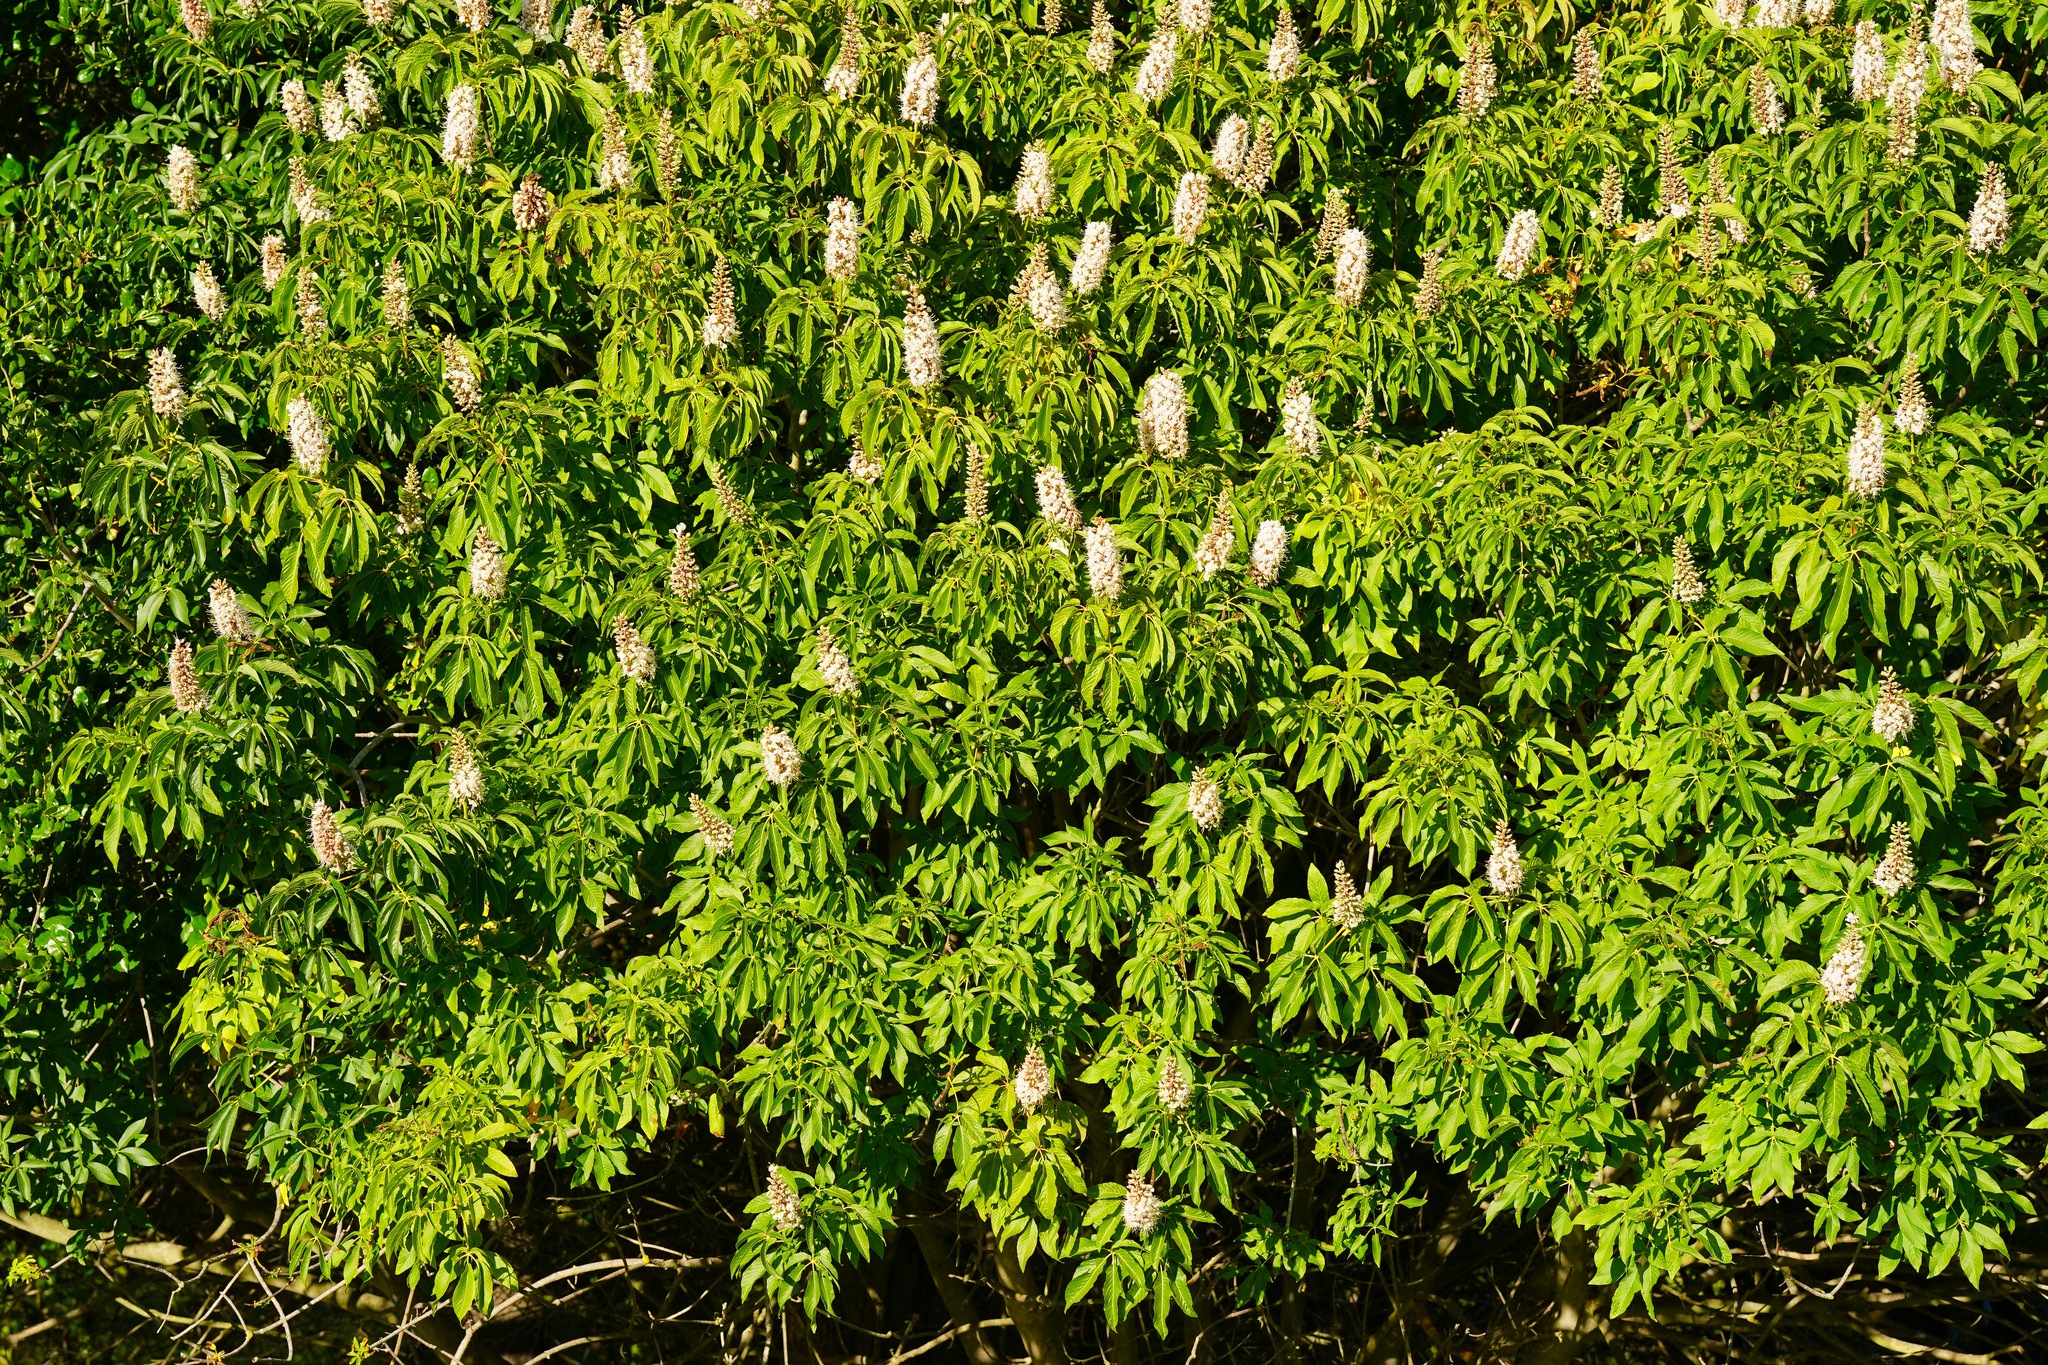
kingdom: Plantae
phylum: Tracheophyta
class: Magnoliopsida
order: Sapindales
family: Sapindaceae
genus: Aesculus
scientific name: Aesculus californica
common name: California buckeye
